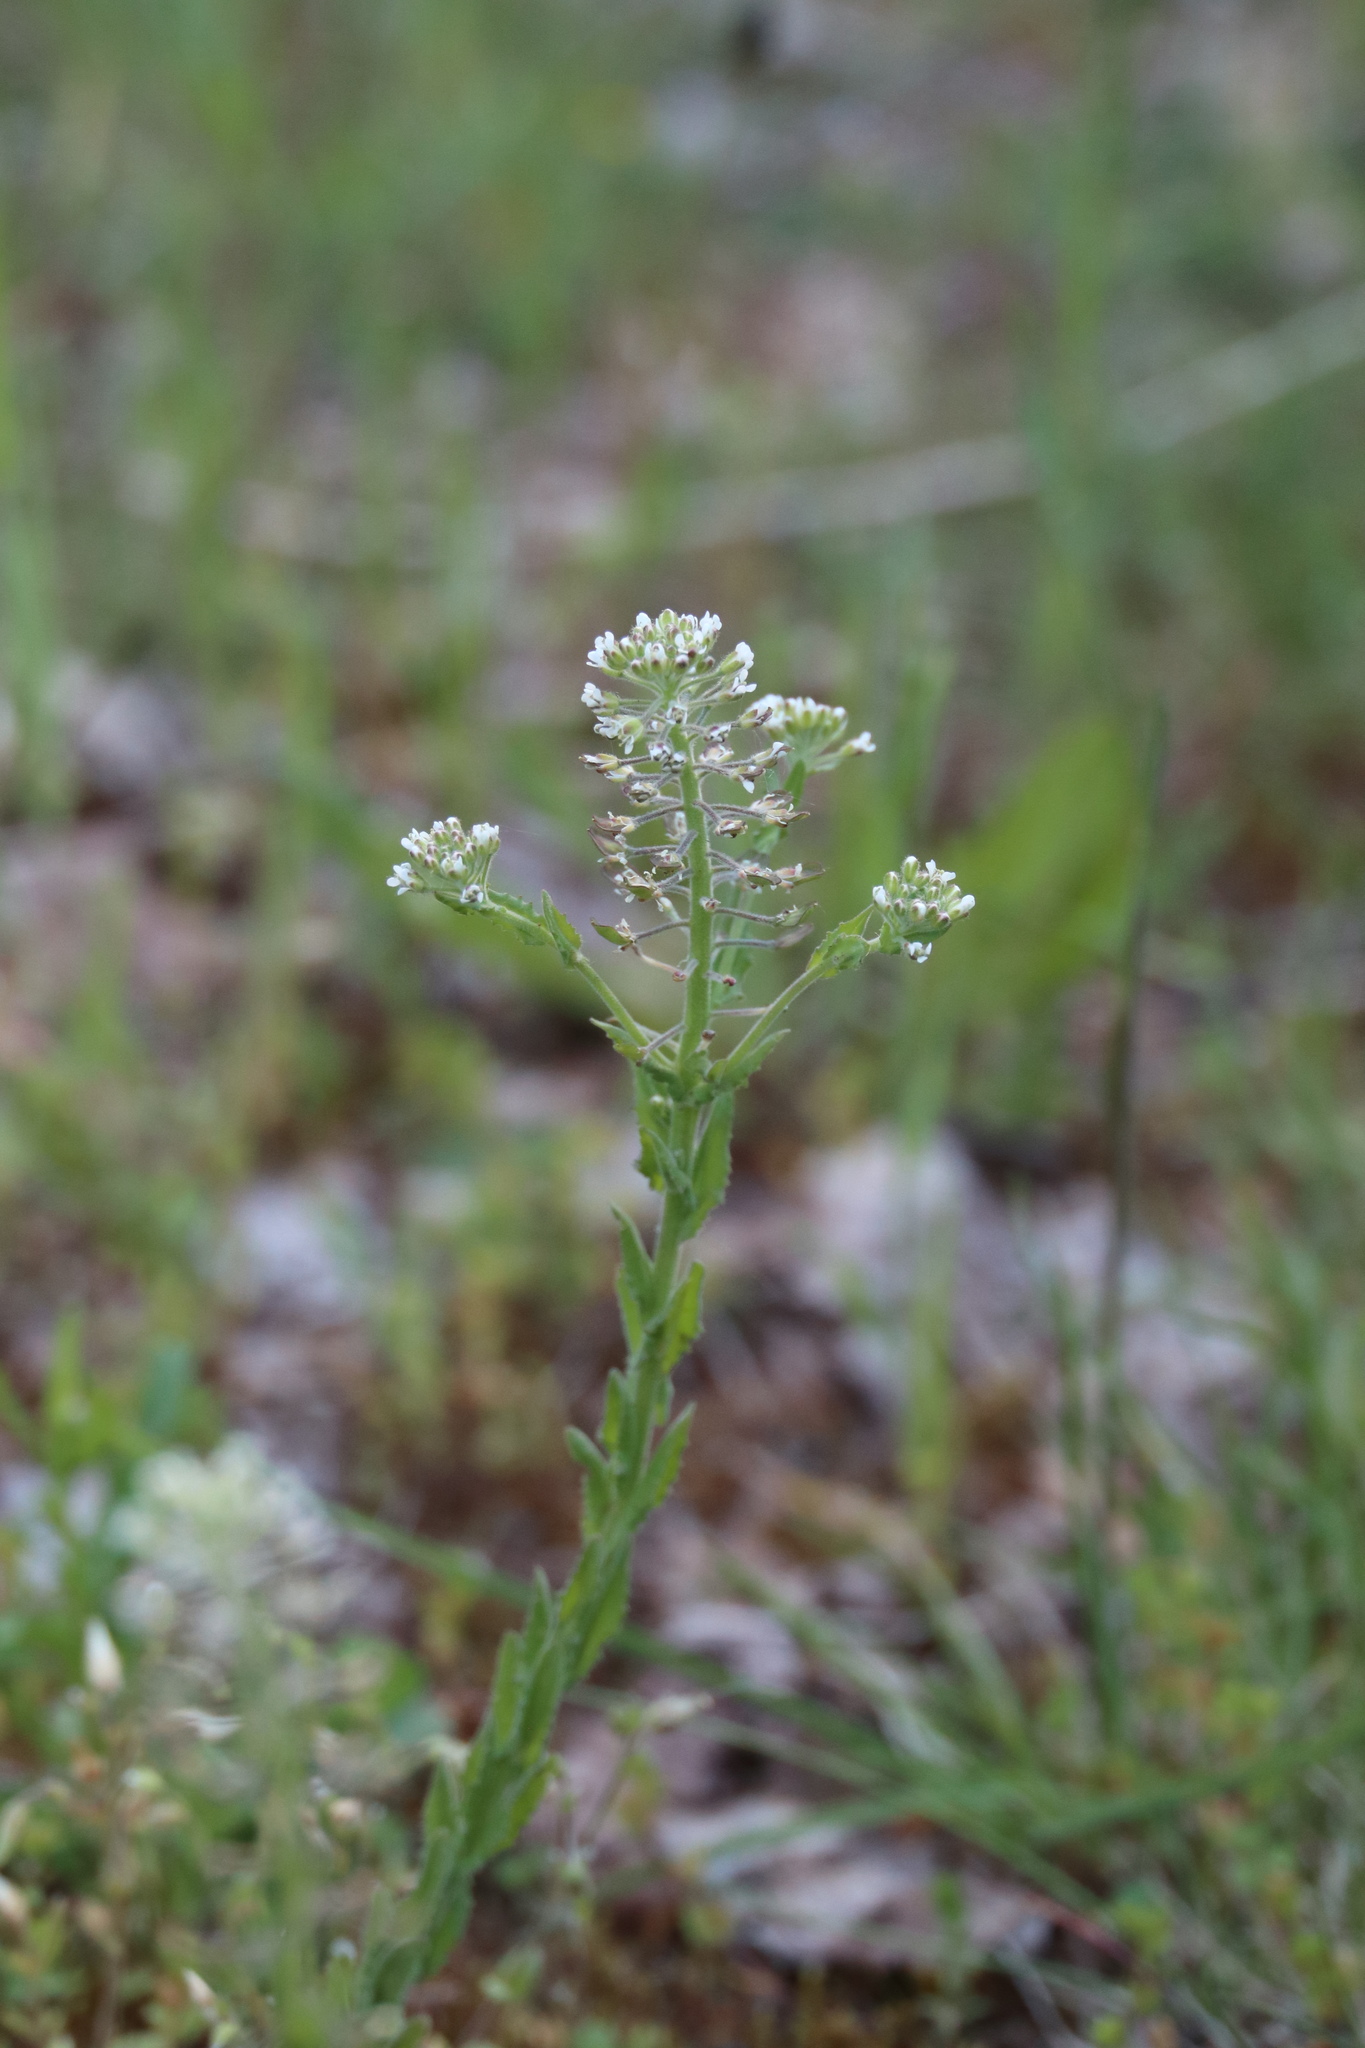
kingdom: Plantae
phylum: Tracheophyta
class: Magnoliopsida
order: Brassicales
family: Brassicaceae
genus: Lepidium
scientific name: Lepidium campestre
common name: Field pepperwort
